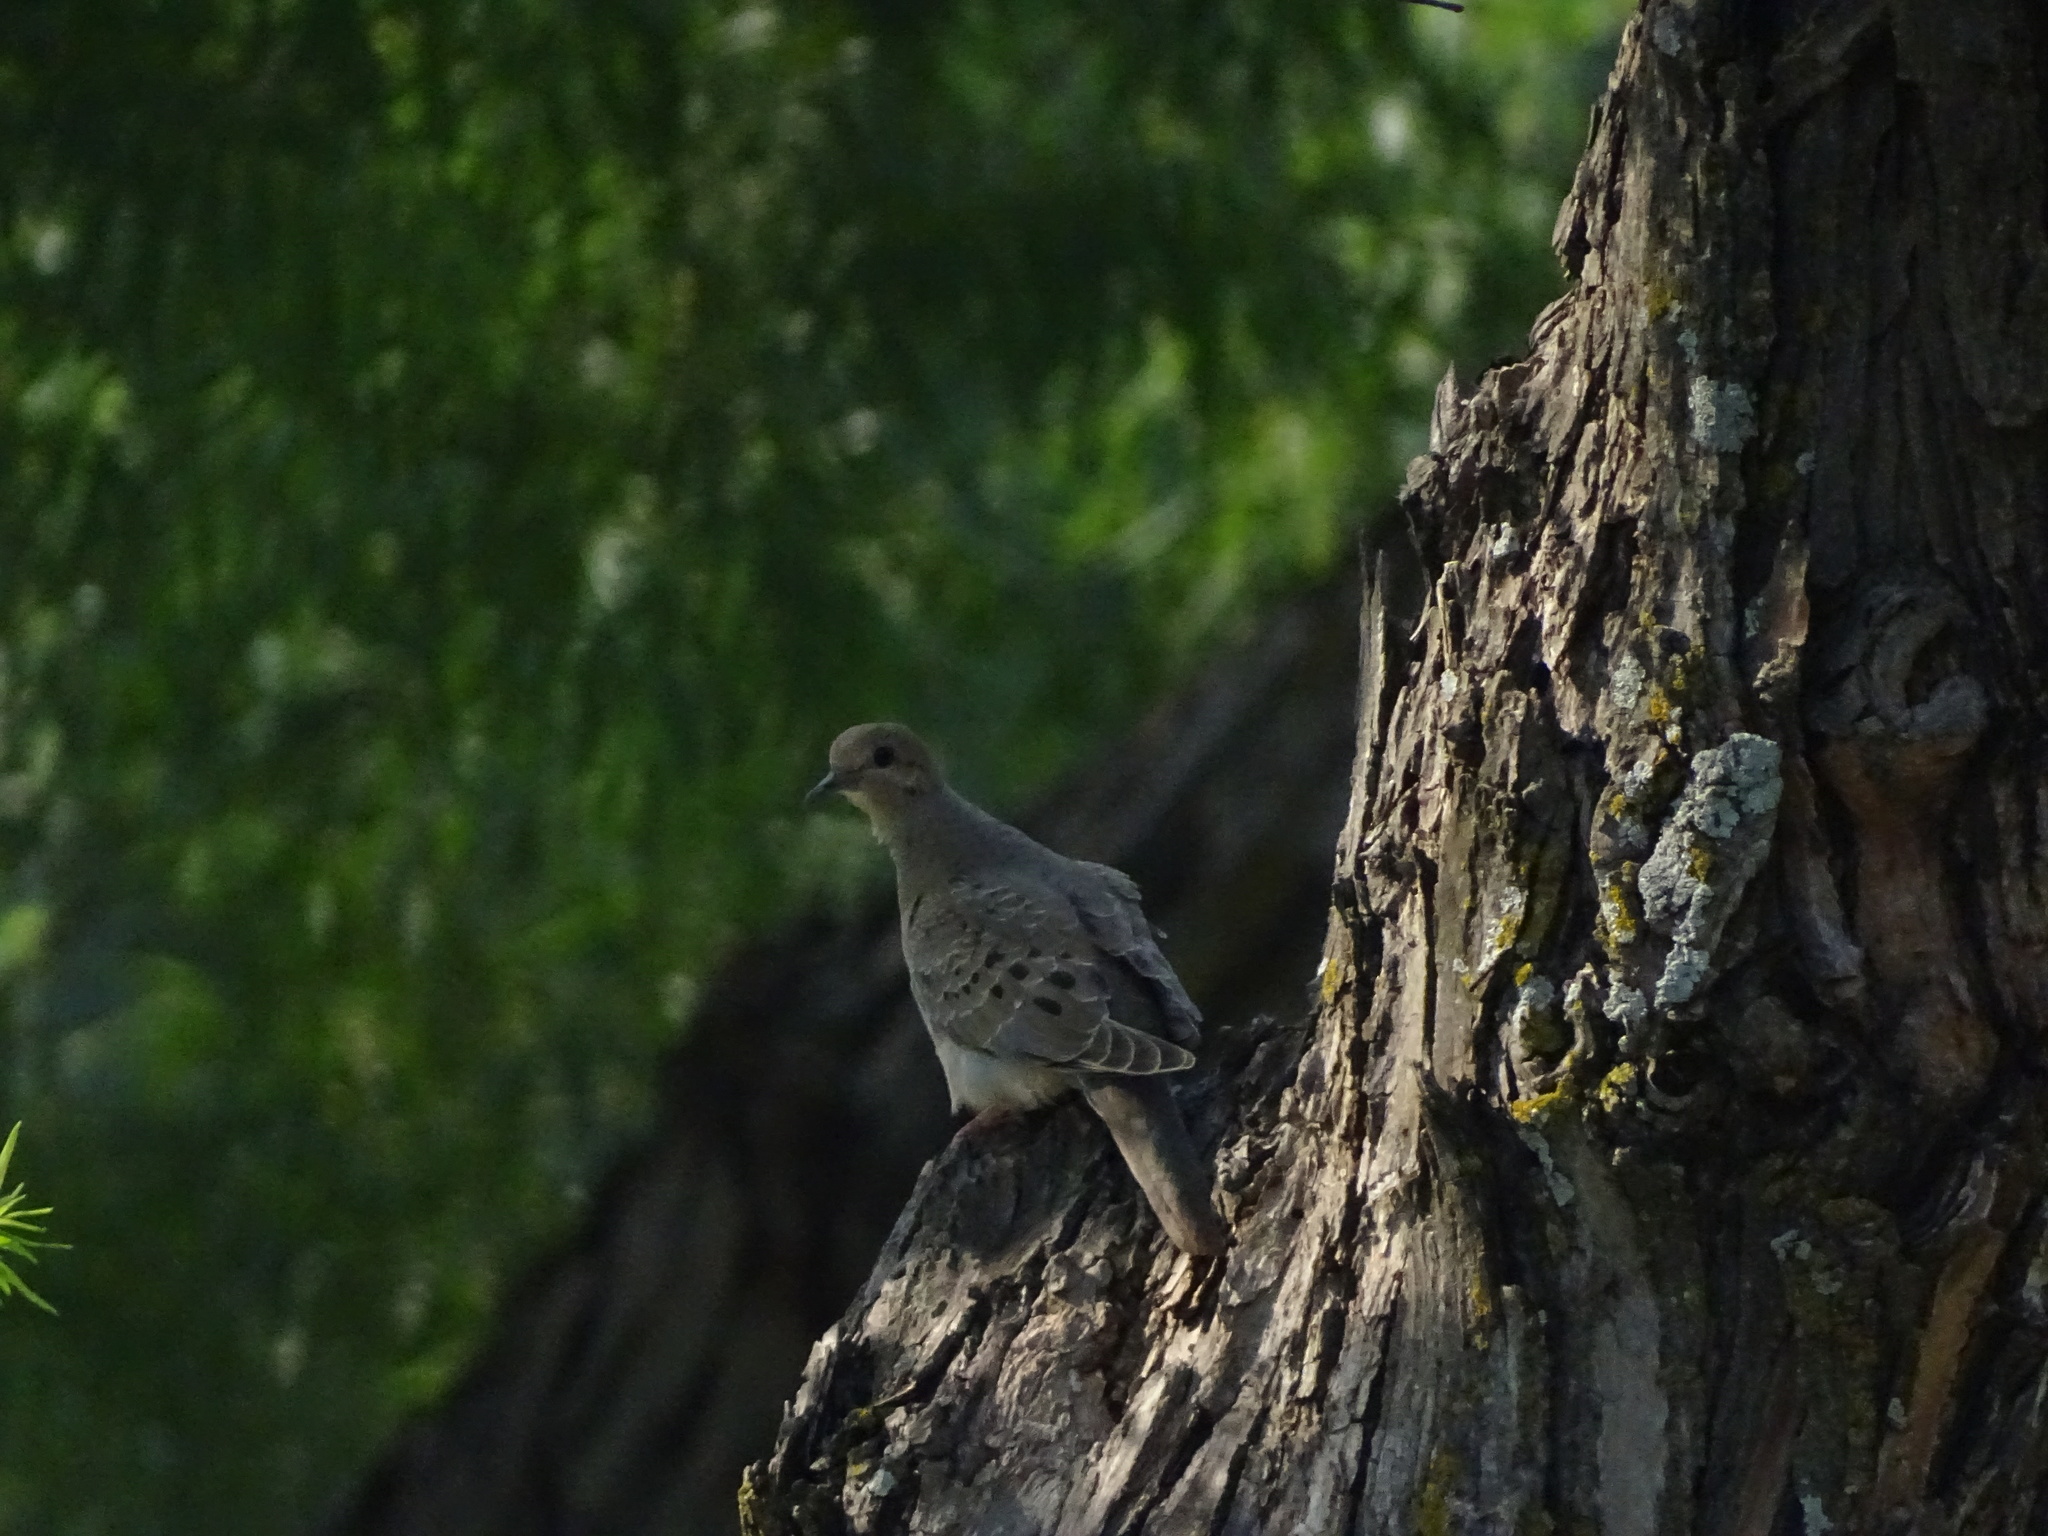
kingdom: Animalia
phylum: Chordata
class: Aves
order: Columbiformes
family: Columbidae
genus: Zenaida
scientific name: Zenaida macroura
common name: Mourning dove
